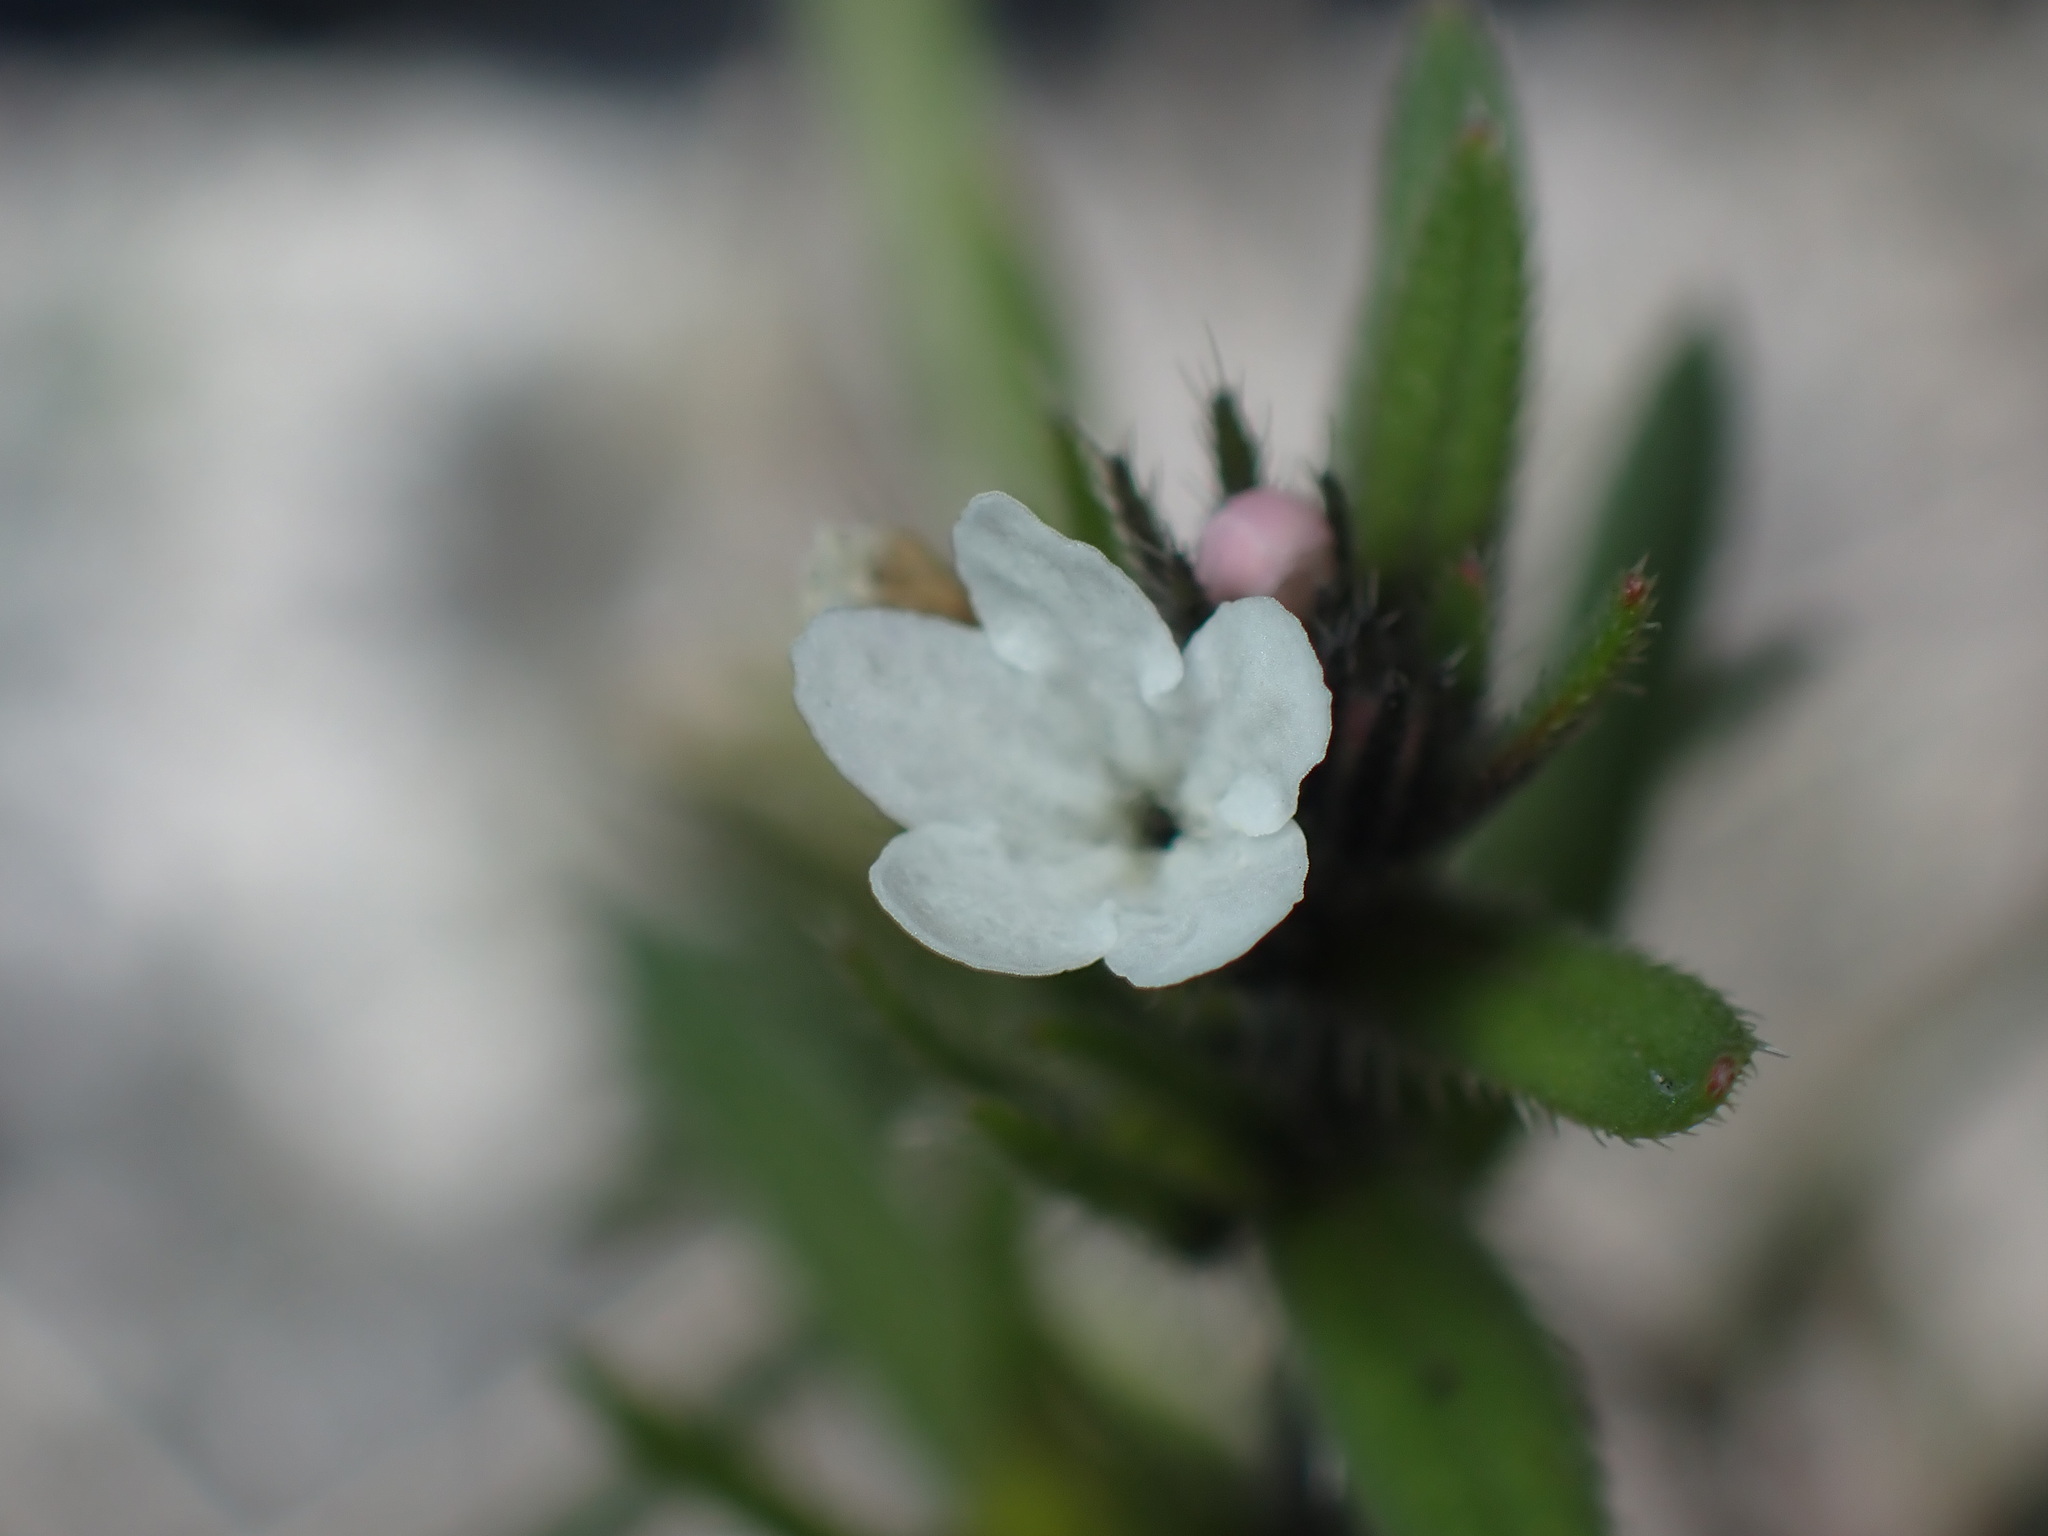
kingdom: Plantae
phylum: Tracheophyta
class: Magnoliopsida
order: Boraginales
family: Boraginaceae
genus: Buglossoides
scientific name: Buglossoides arvensis
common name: Corn gromwell
